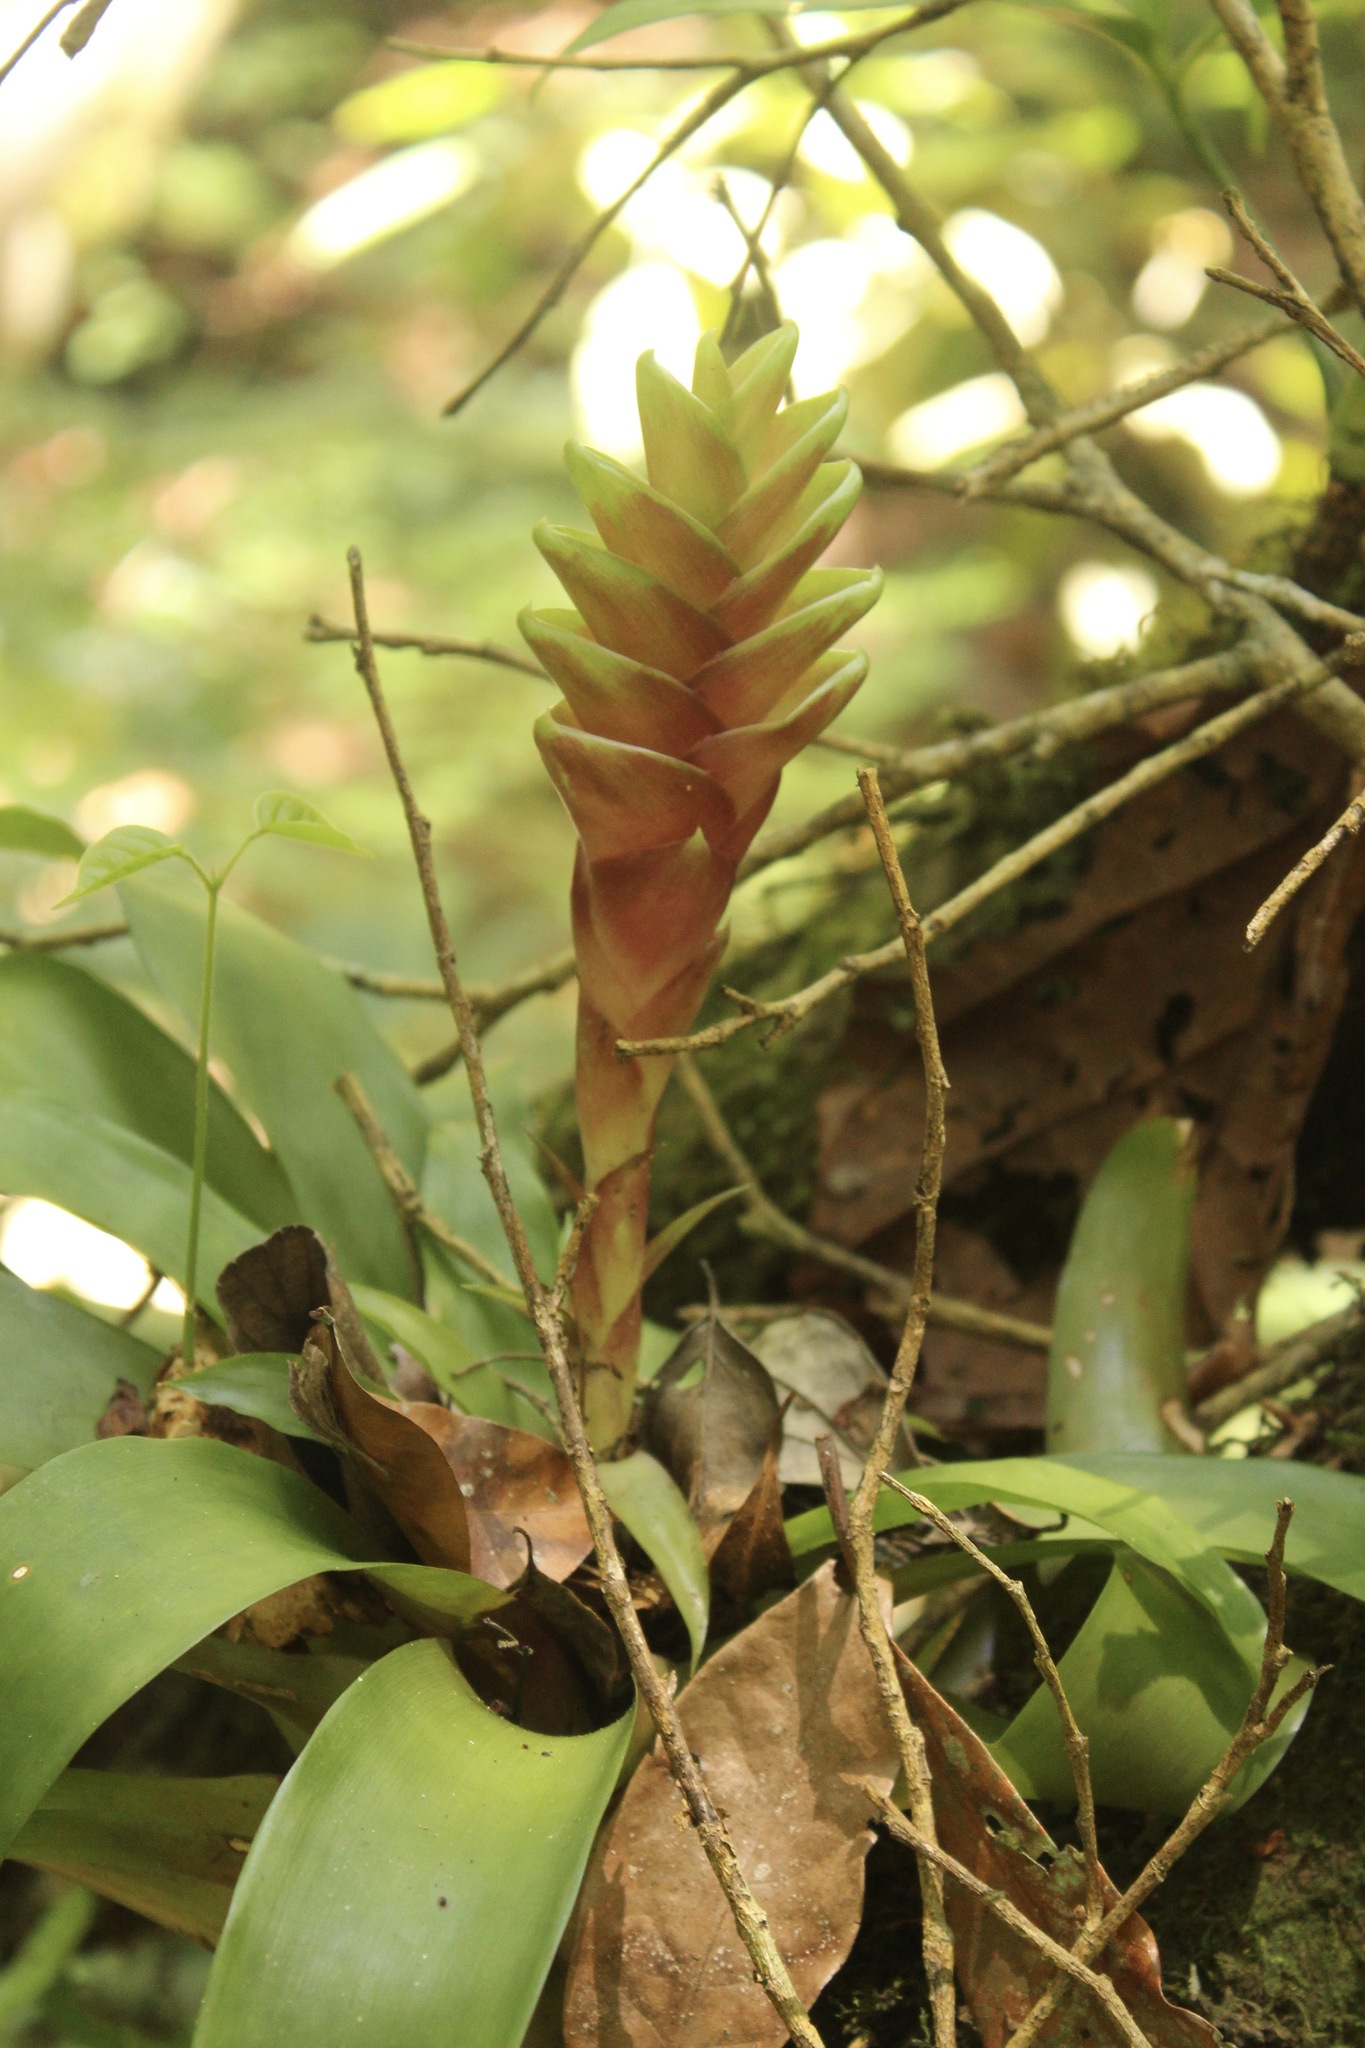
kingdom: Plantae
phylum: Tracheophyta
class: Liliopsida
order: Poales
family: Bromeliaceae
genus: Tillandsia
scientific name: Tillandsia heliconioides
